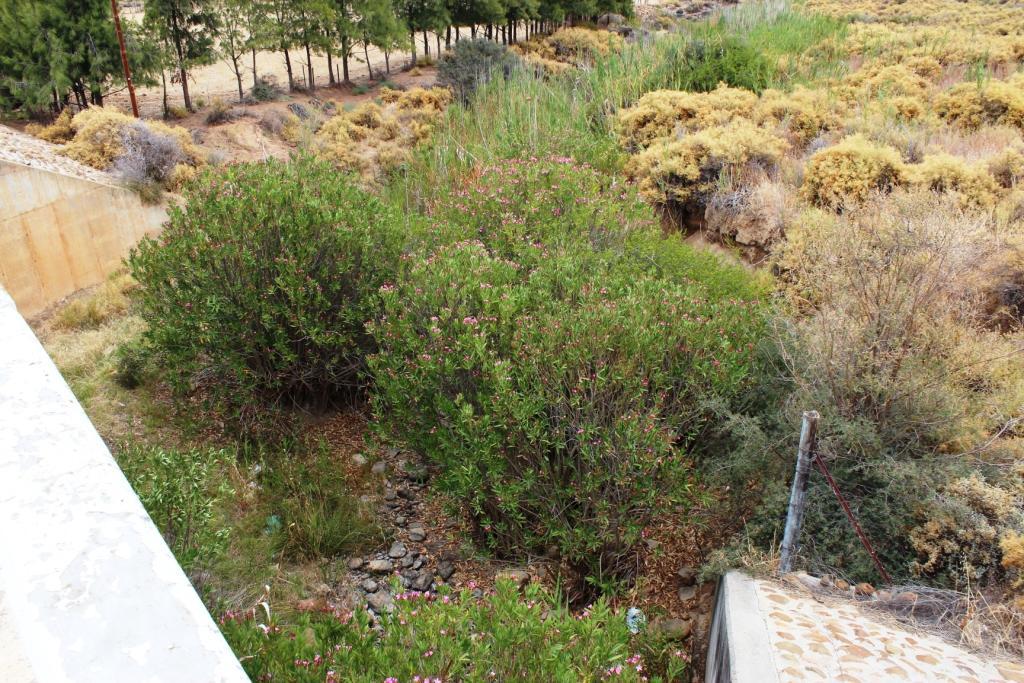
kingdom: Plantae
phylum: Tracheophyta
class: Magnoliopsida
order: Gentianales
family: Apocynaceae
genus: Nerium
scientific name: Nerium oleander
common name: Oleander
